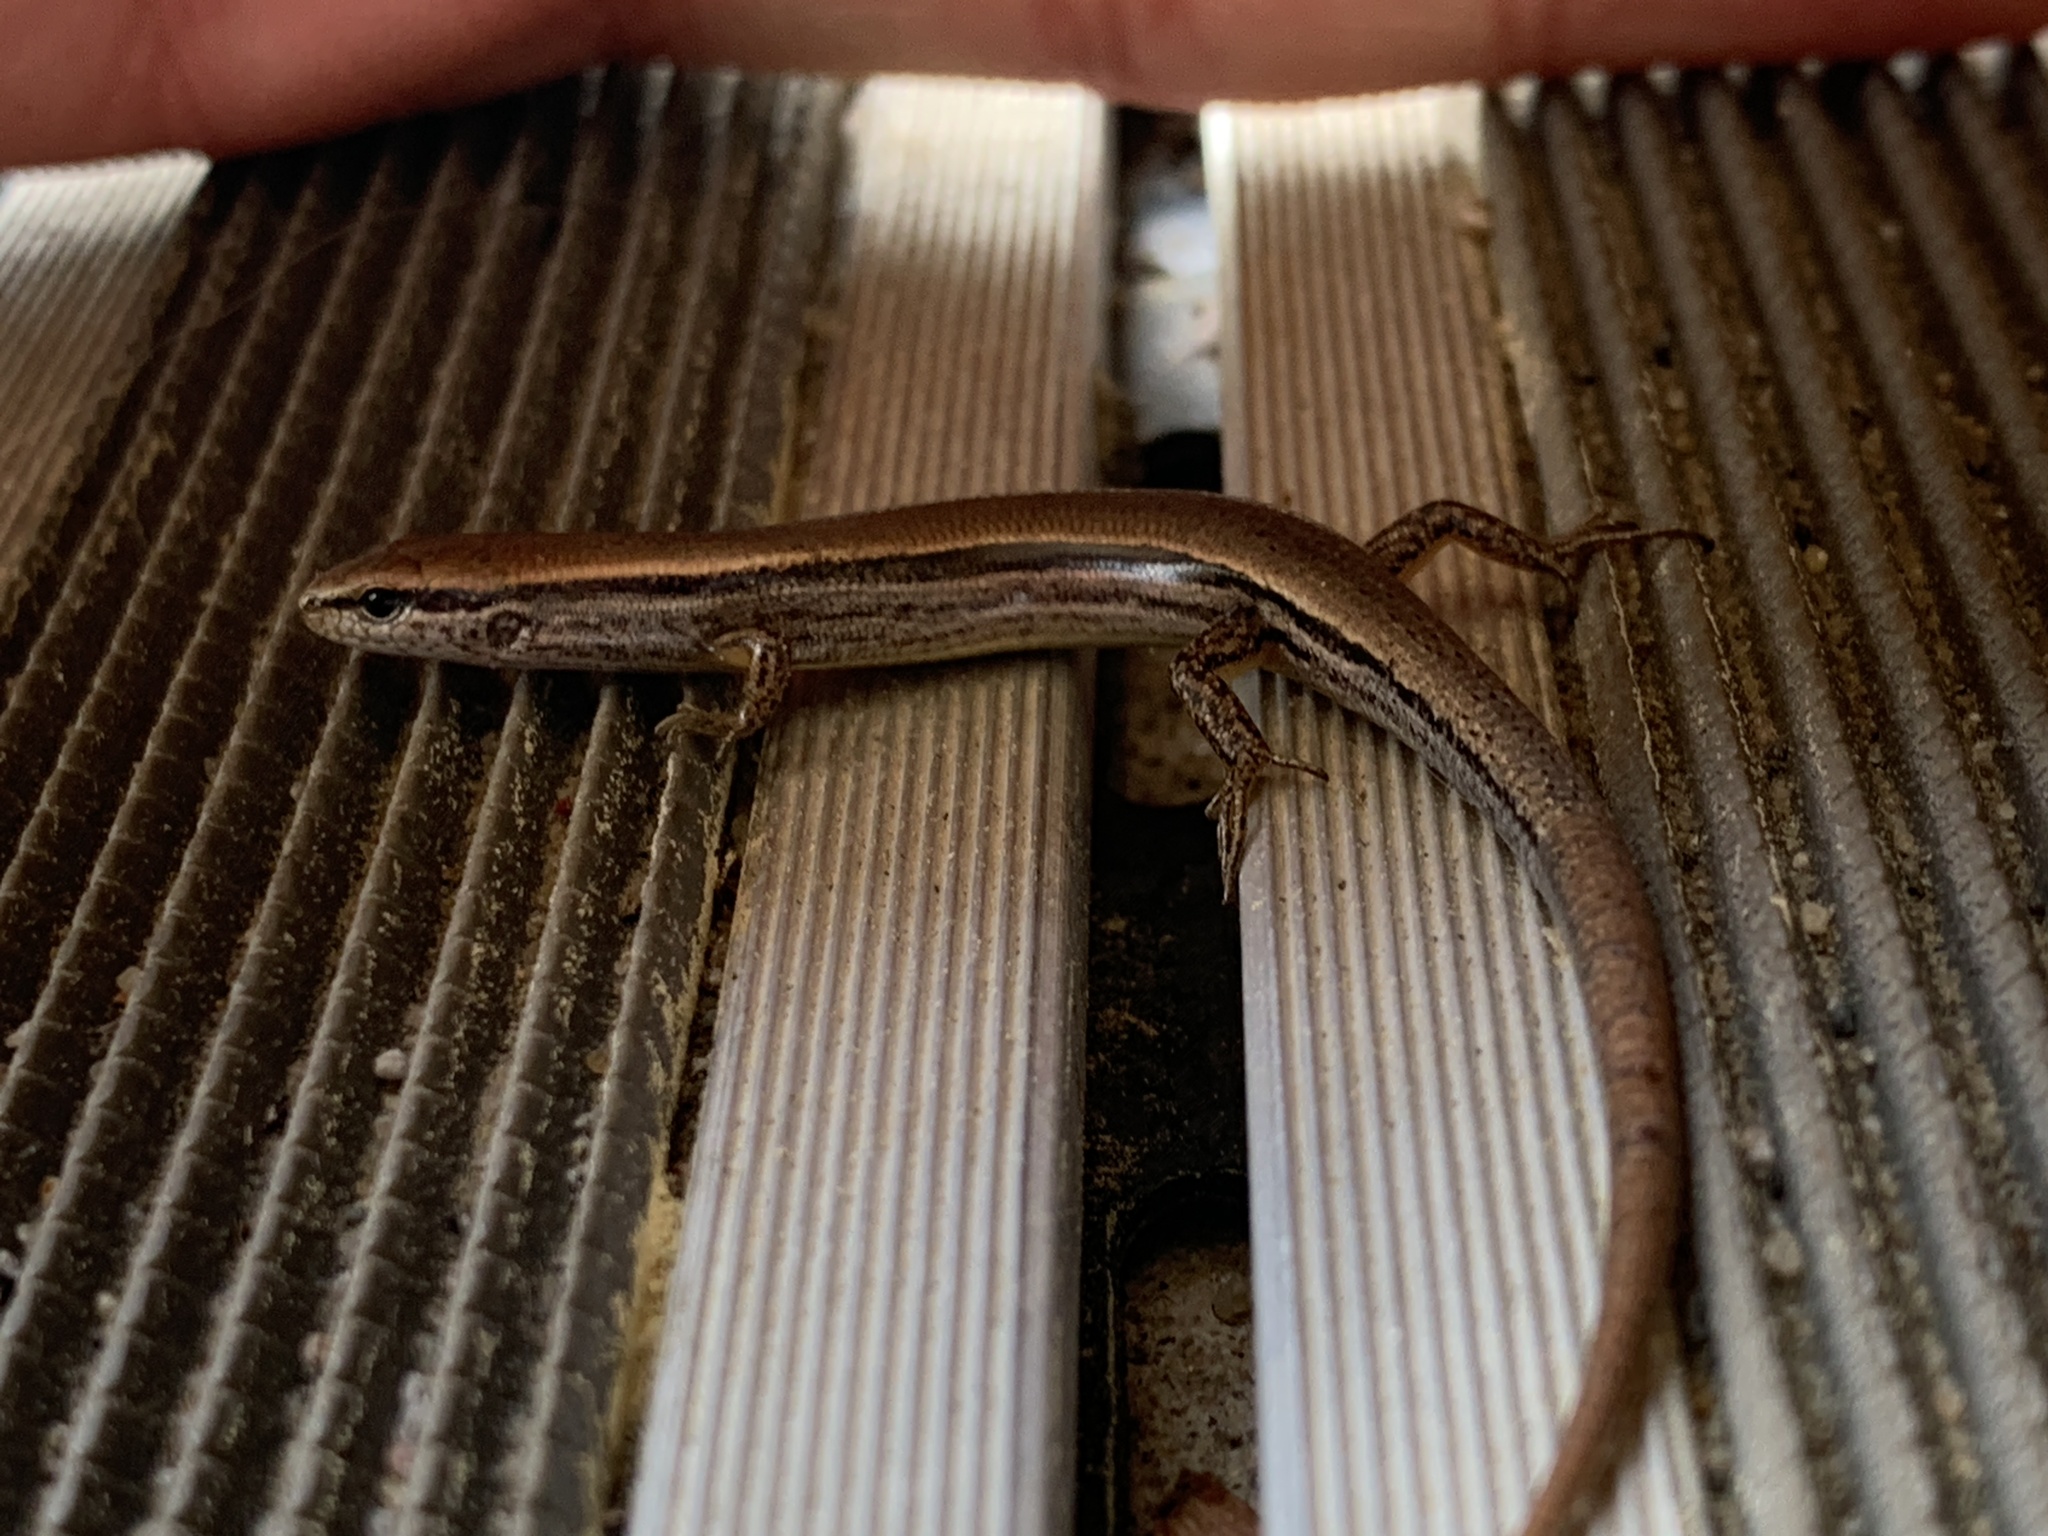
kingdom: Animalia
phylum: Chordata
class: Squamata
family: Scincidae
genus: Scincella
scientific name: Scincella lateralis
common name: Ground skink
